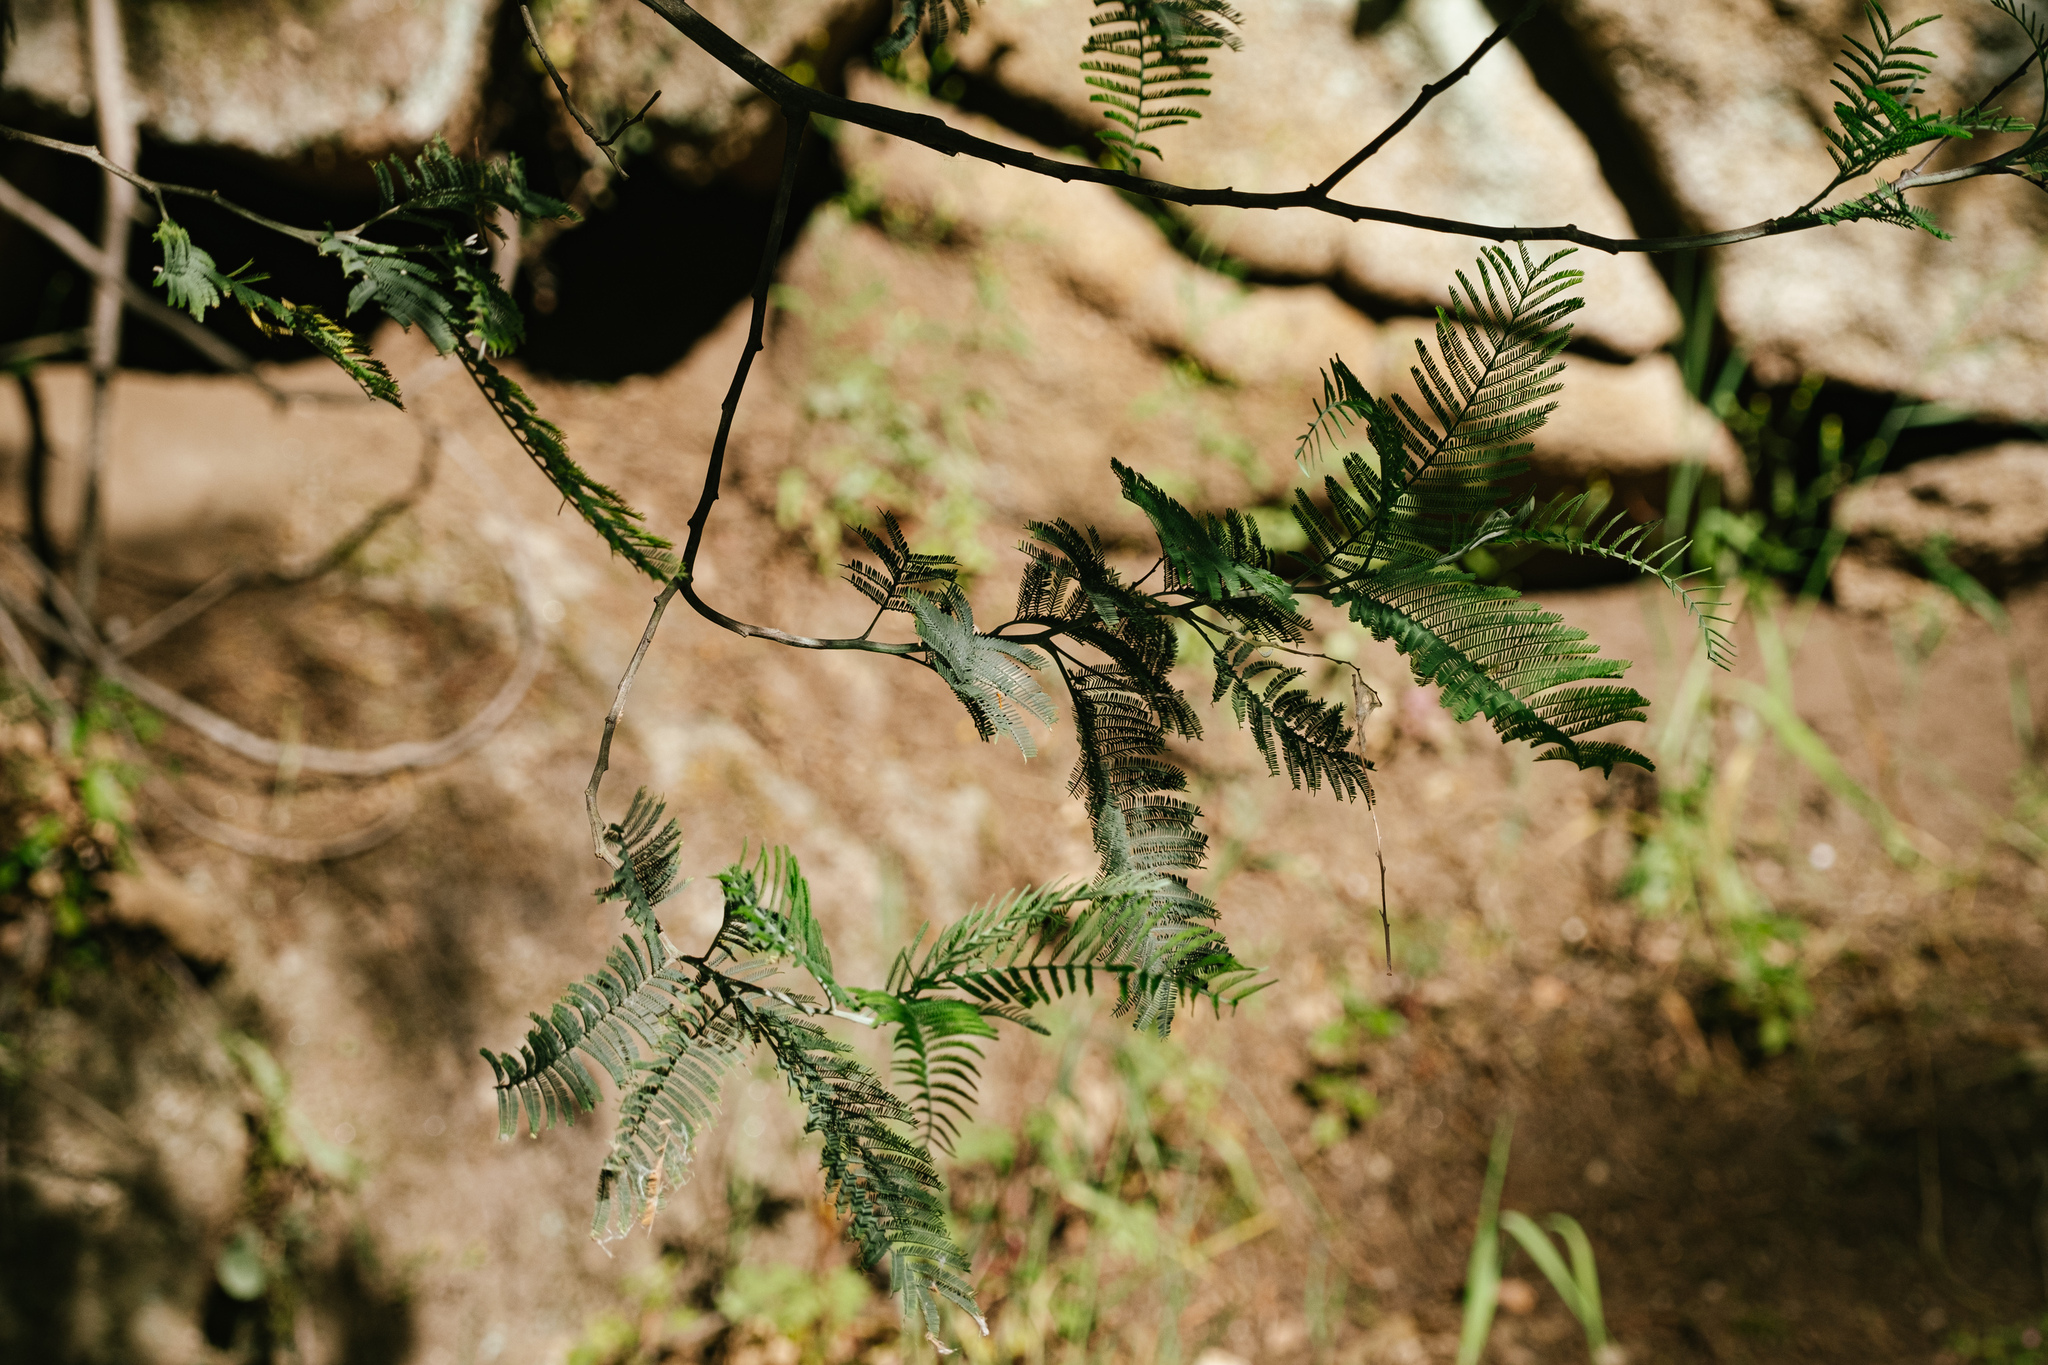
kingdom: Plantae
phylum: Tracheophyta
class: Magnoliopsida
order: Fabales
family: Fabaceae
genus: Acacia
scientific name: Acacia dealbata
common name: Silver wattle
